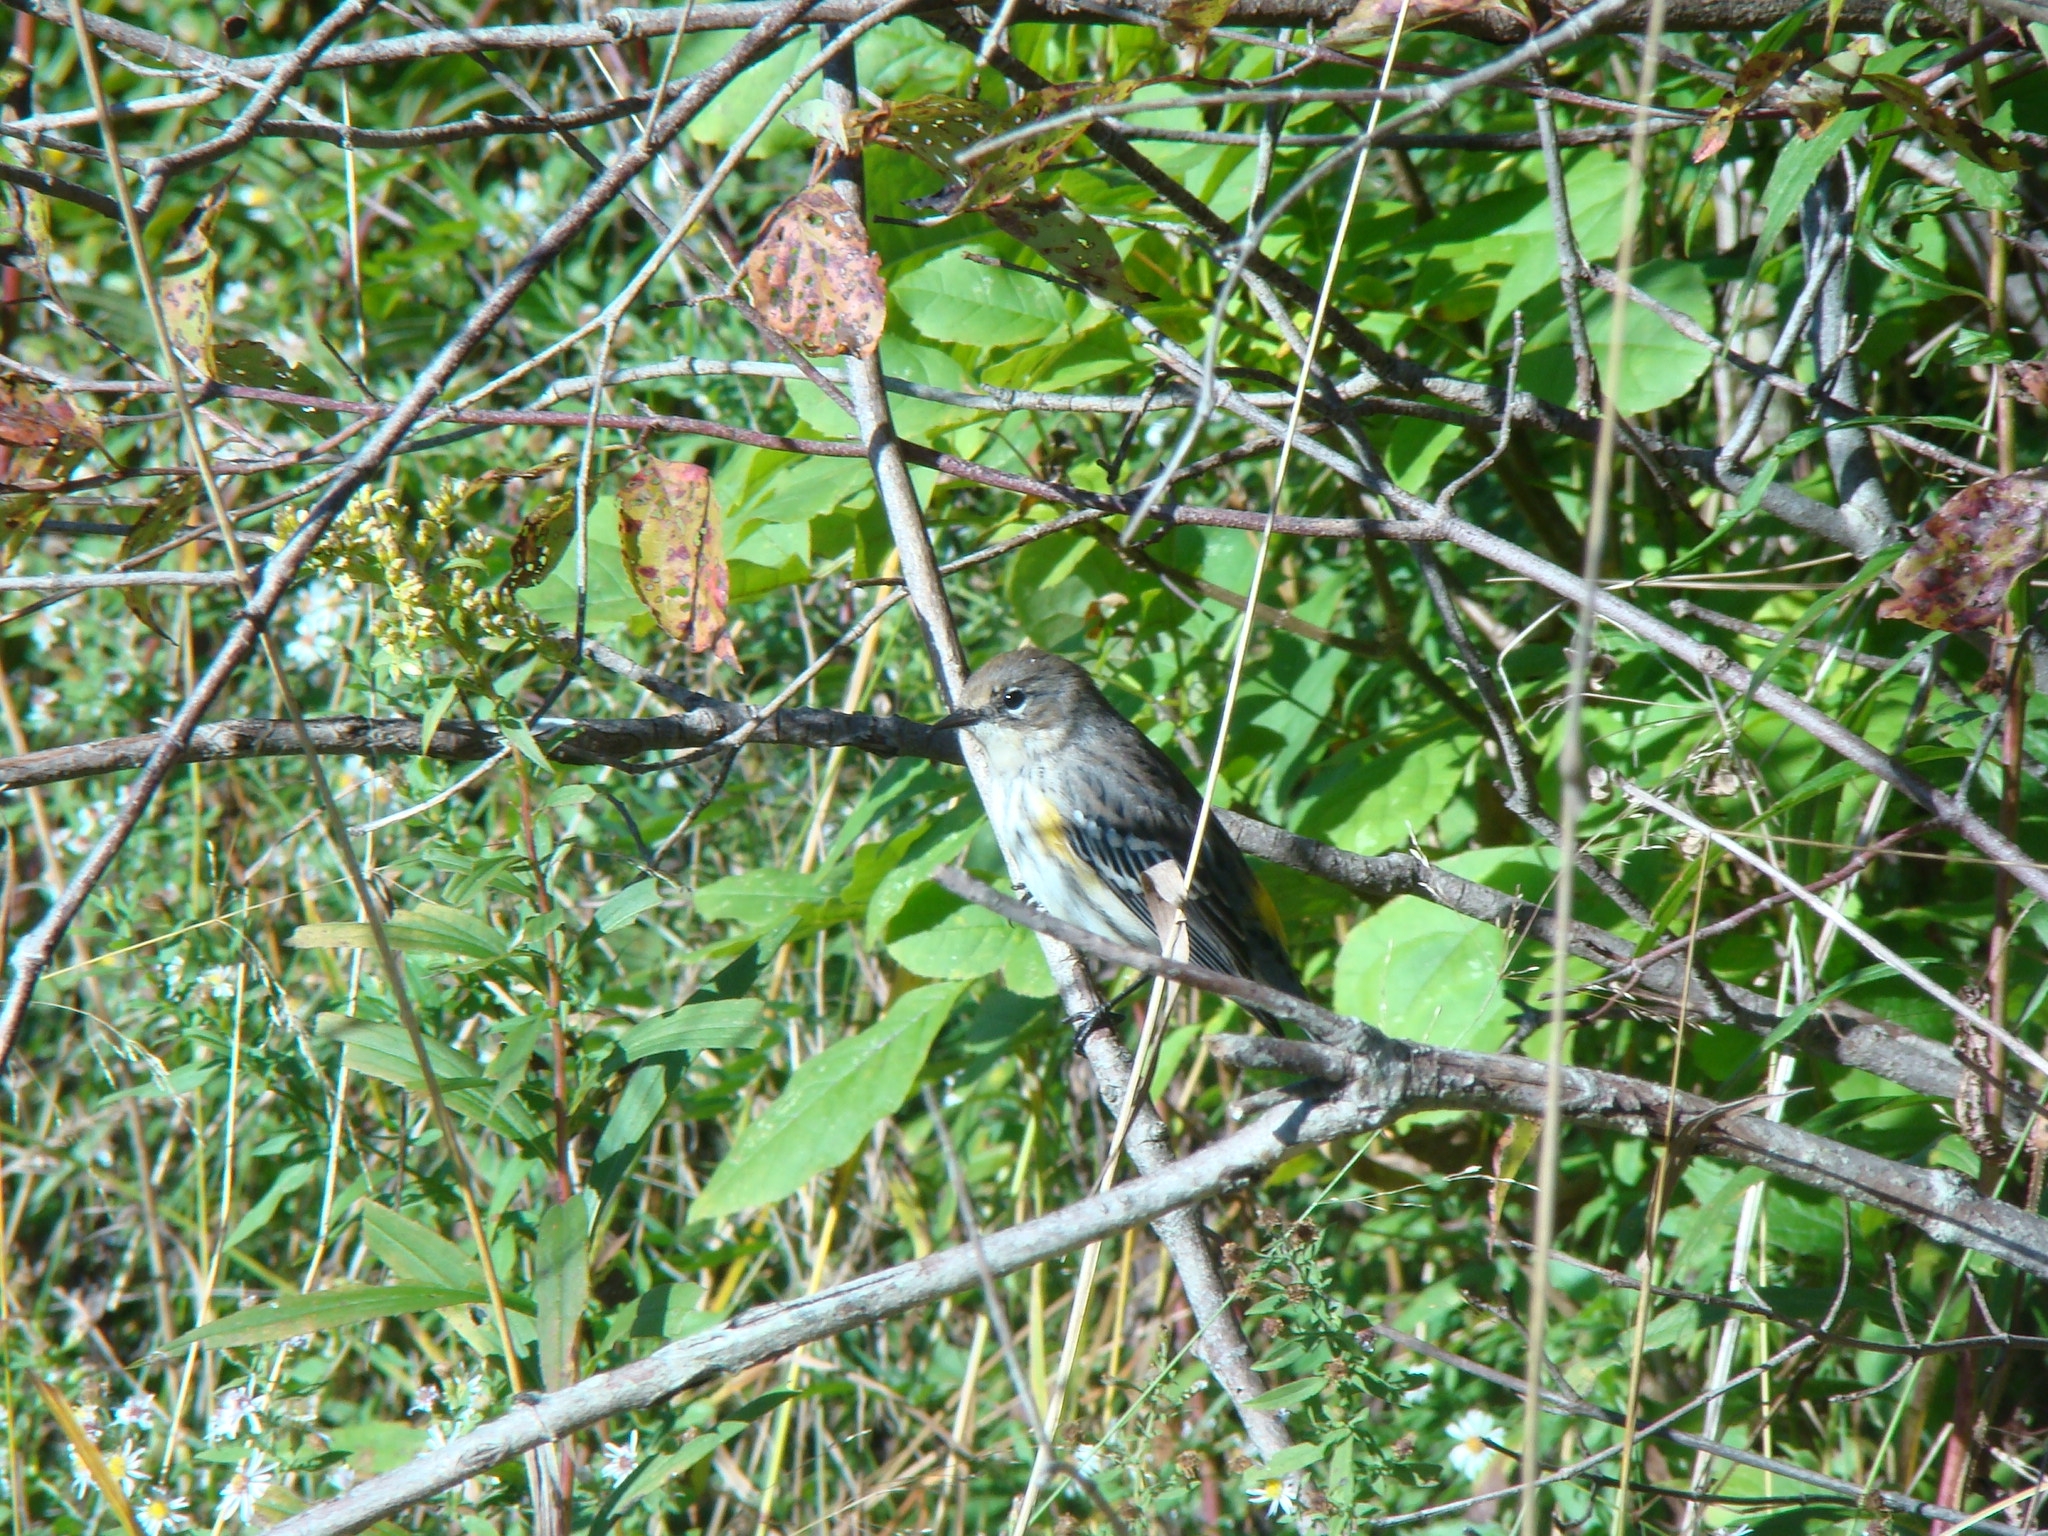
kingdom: Animalia
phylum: Chordata
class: Aves
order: Passeriformes
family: Parulidae
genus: Setophaga
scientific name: Setophaga coronata
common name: Myrtle warbler
